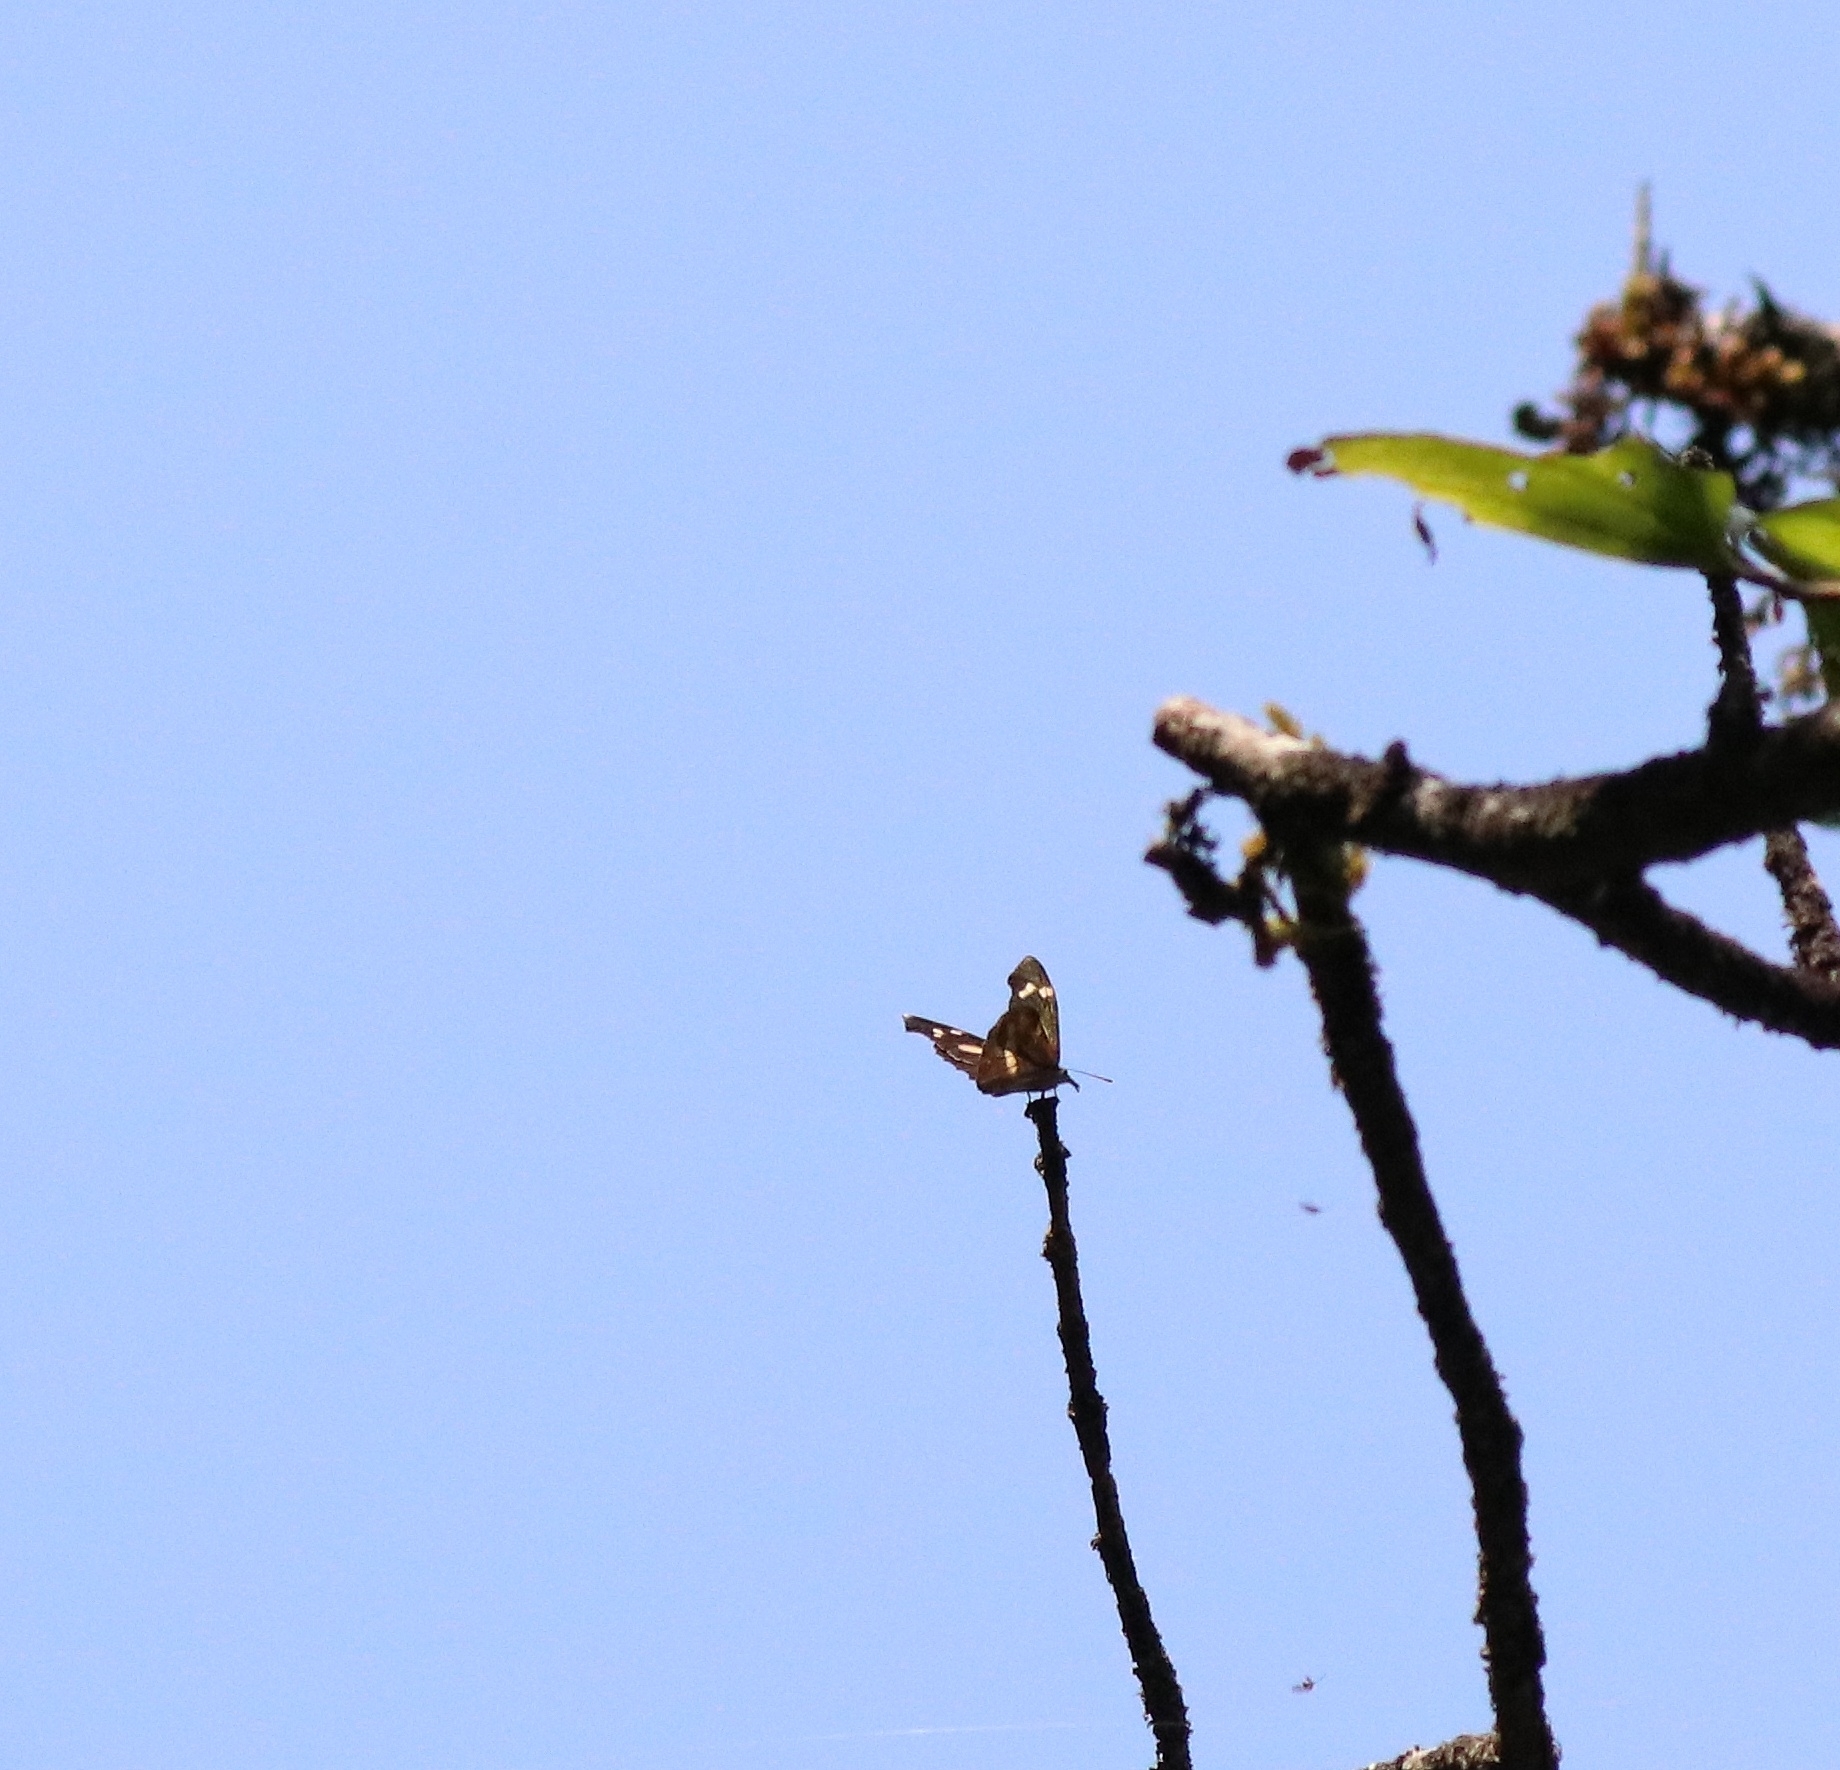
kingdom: Animalia
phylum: Arthropoda
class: Insecta
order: Lepidoptera
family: Nymphalidae
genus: Libythea
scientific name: Libythea myrrha
